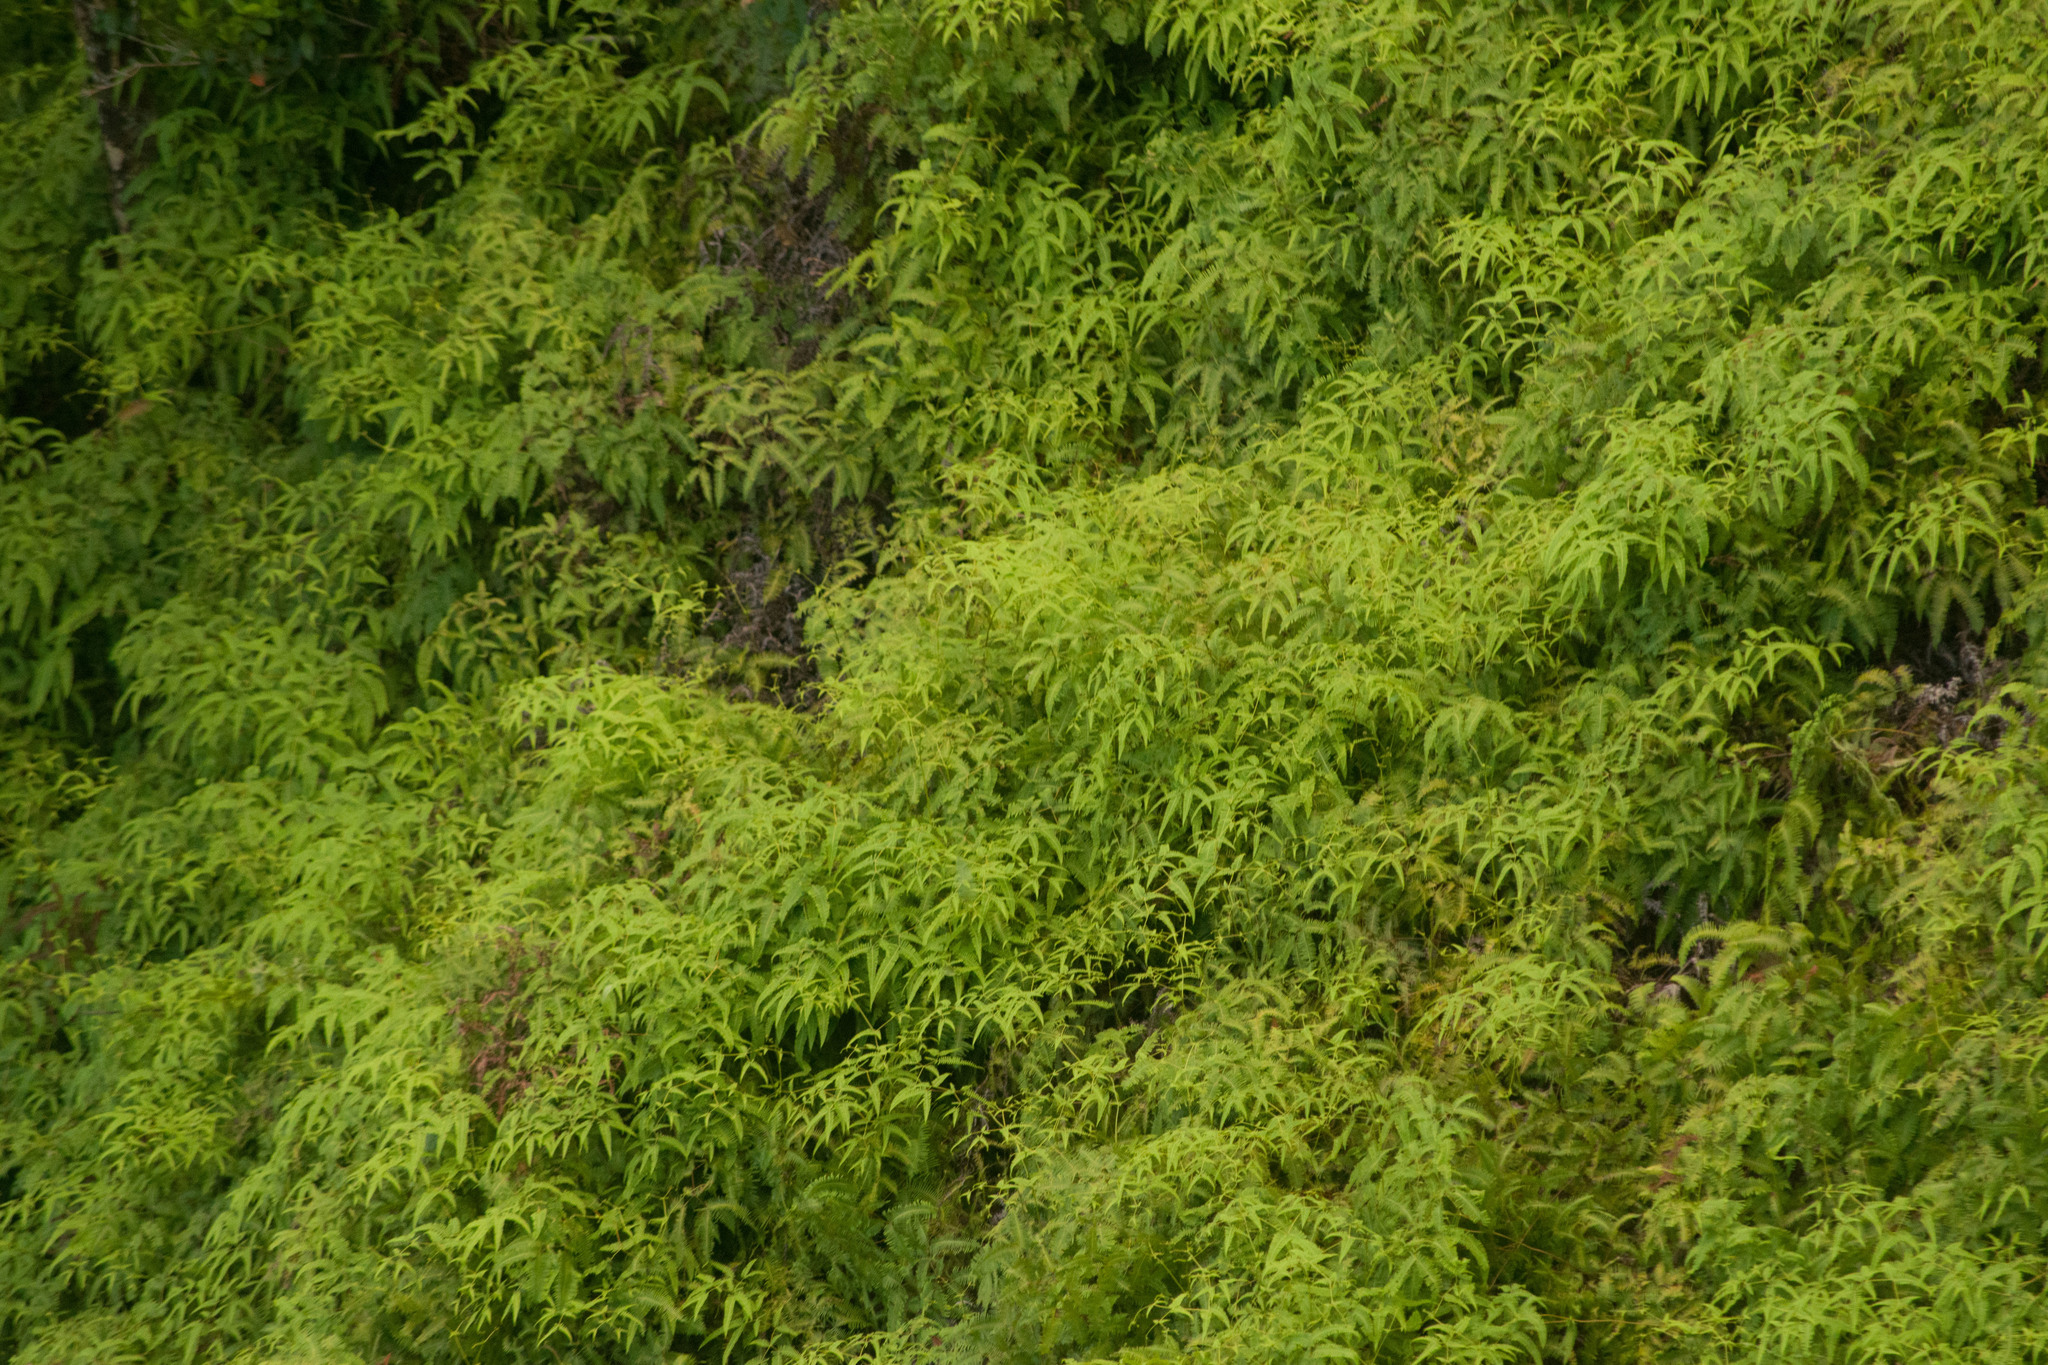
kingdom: Plantae
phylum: Tracheophyta
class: Polypodiopsida
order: Gleicheniales
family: Gleicheniaceae
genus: Dicranopteris
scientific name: Dicranopteris linearis
